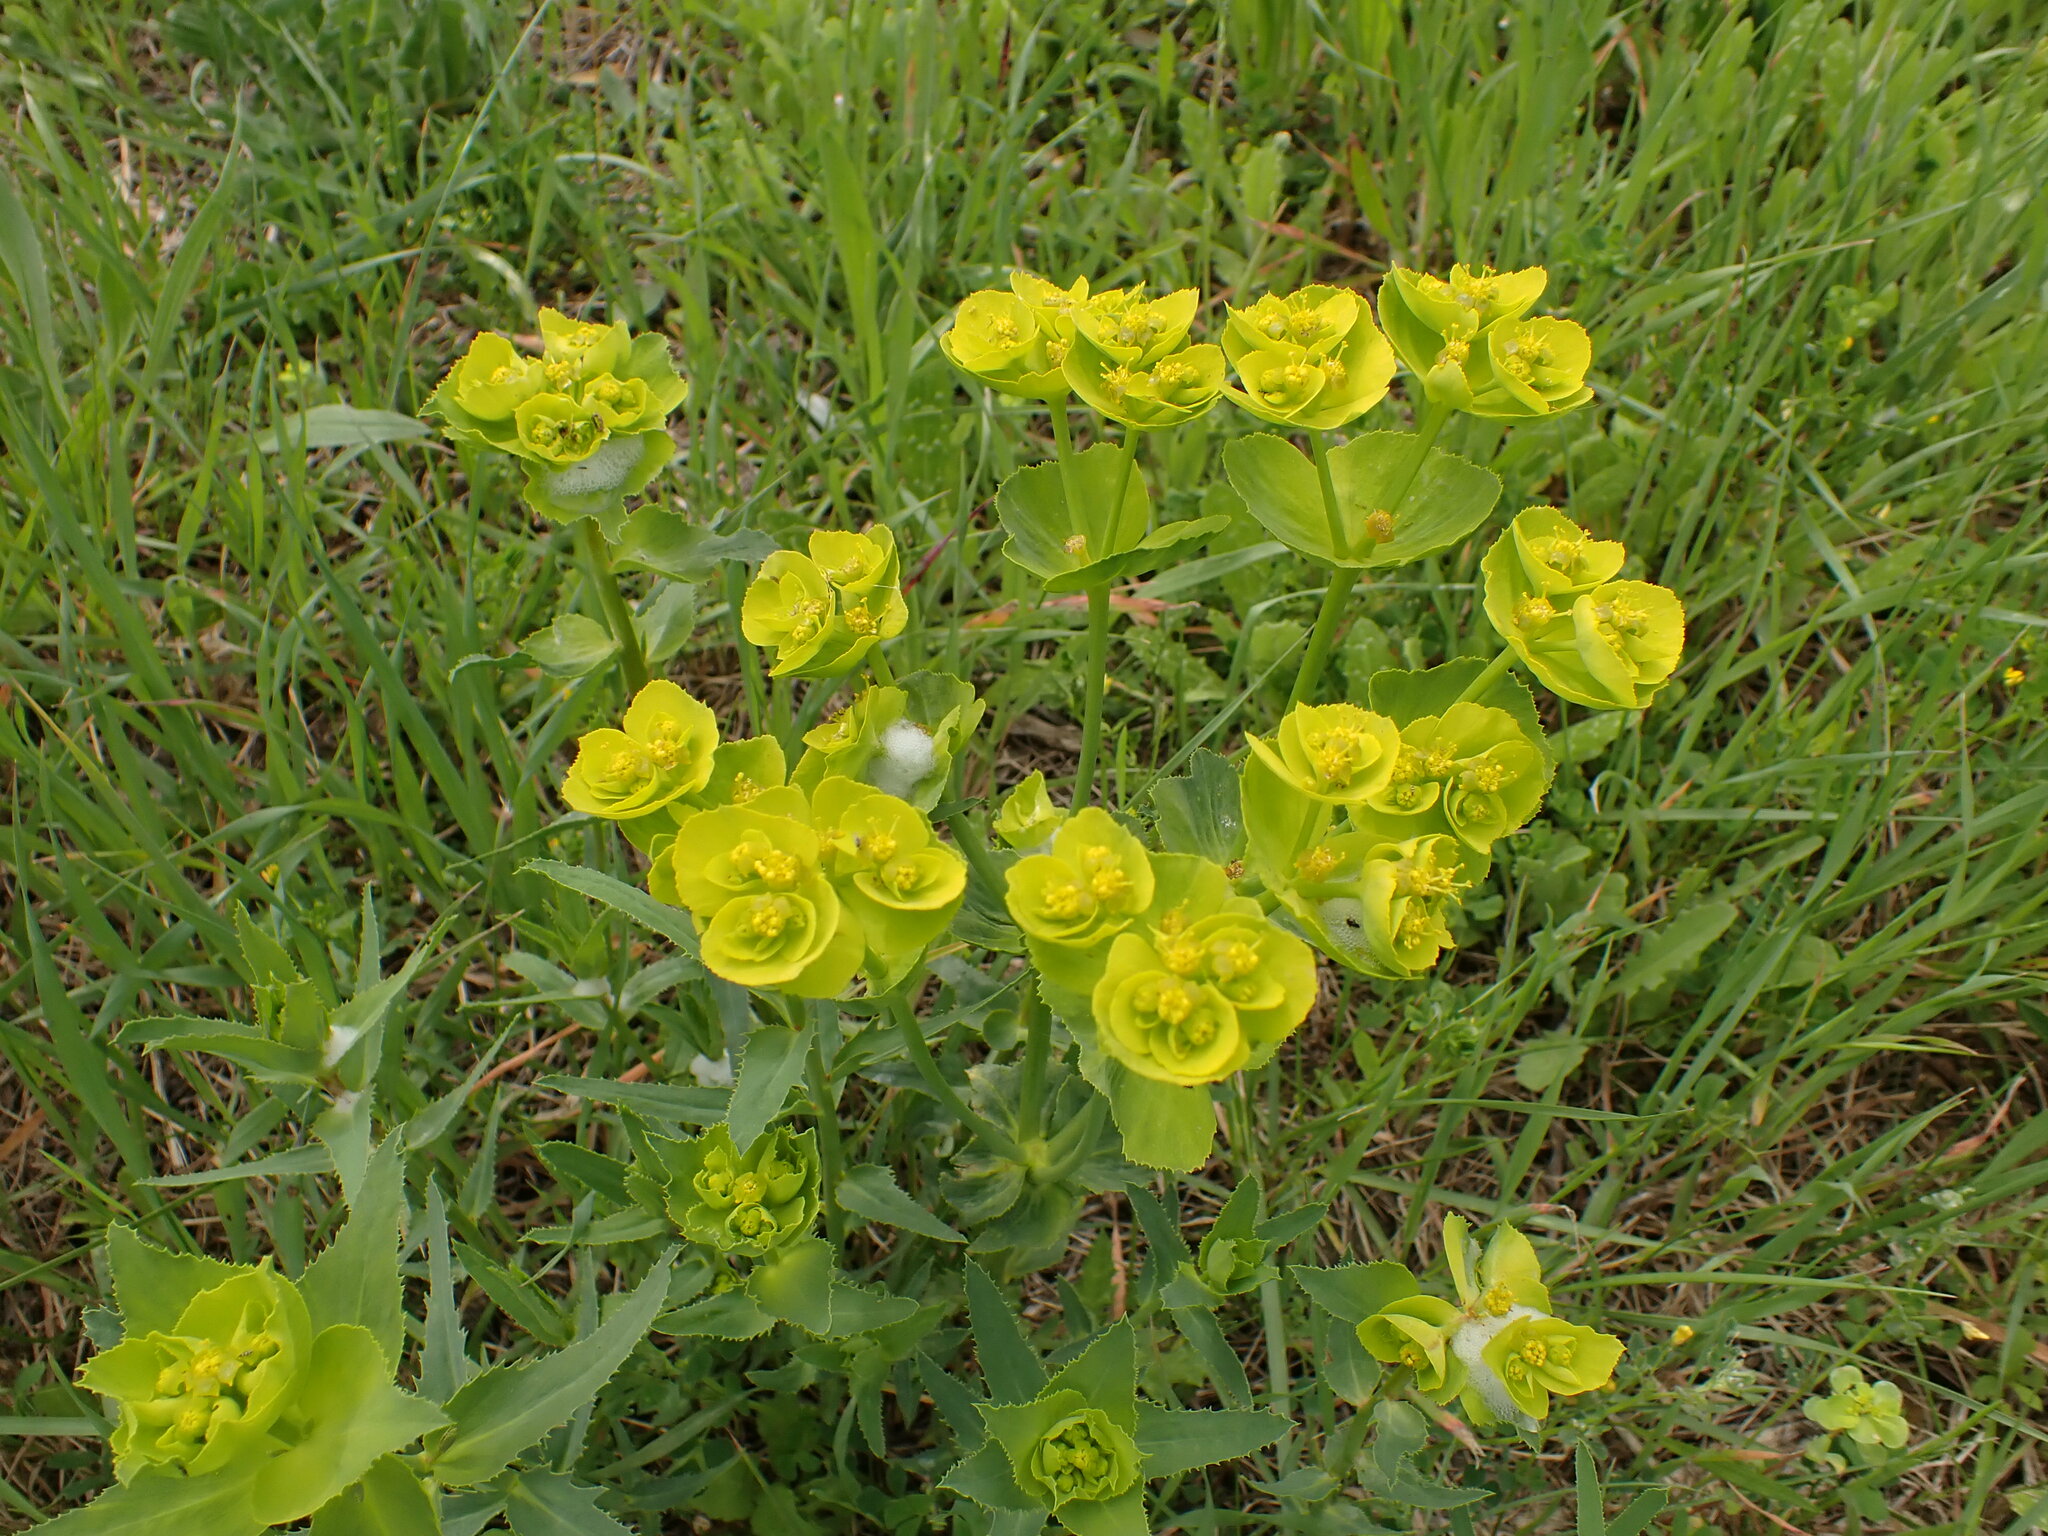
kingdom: Plantae
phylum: Tracheophyta
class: Magnoliopsida
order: Malpighiales
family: Euphorbiaceae
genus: Euphorbia
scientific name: Euphorbia serrata
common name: Serrate spurge
